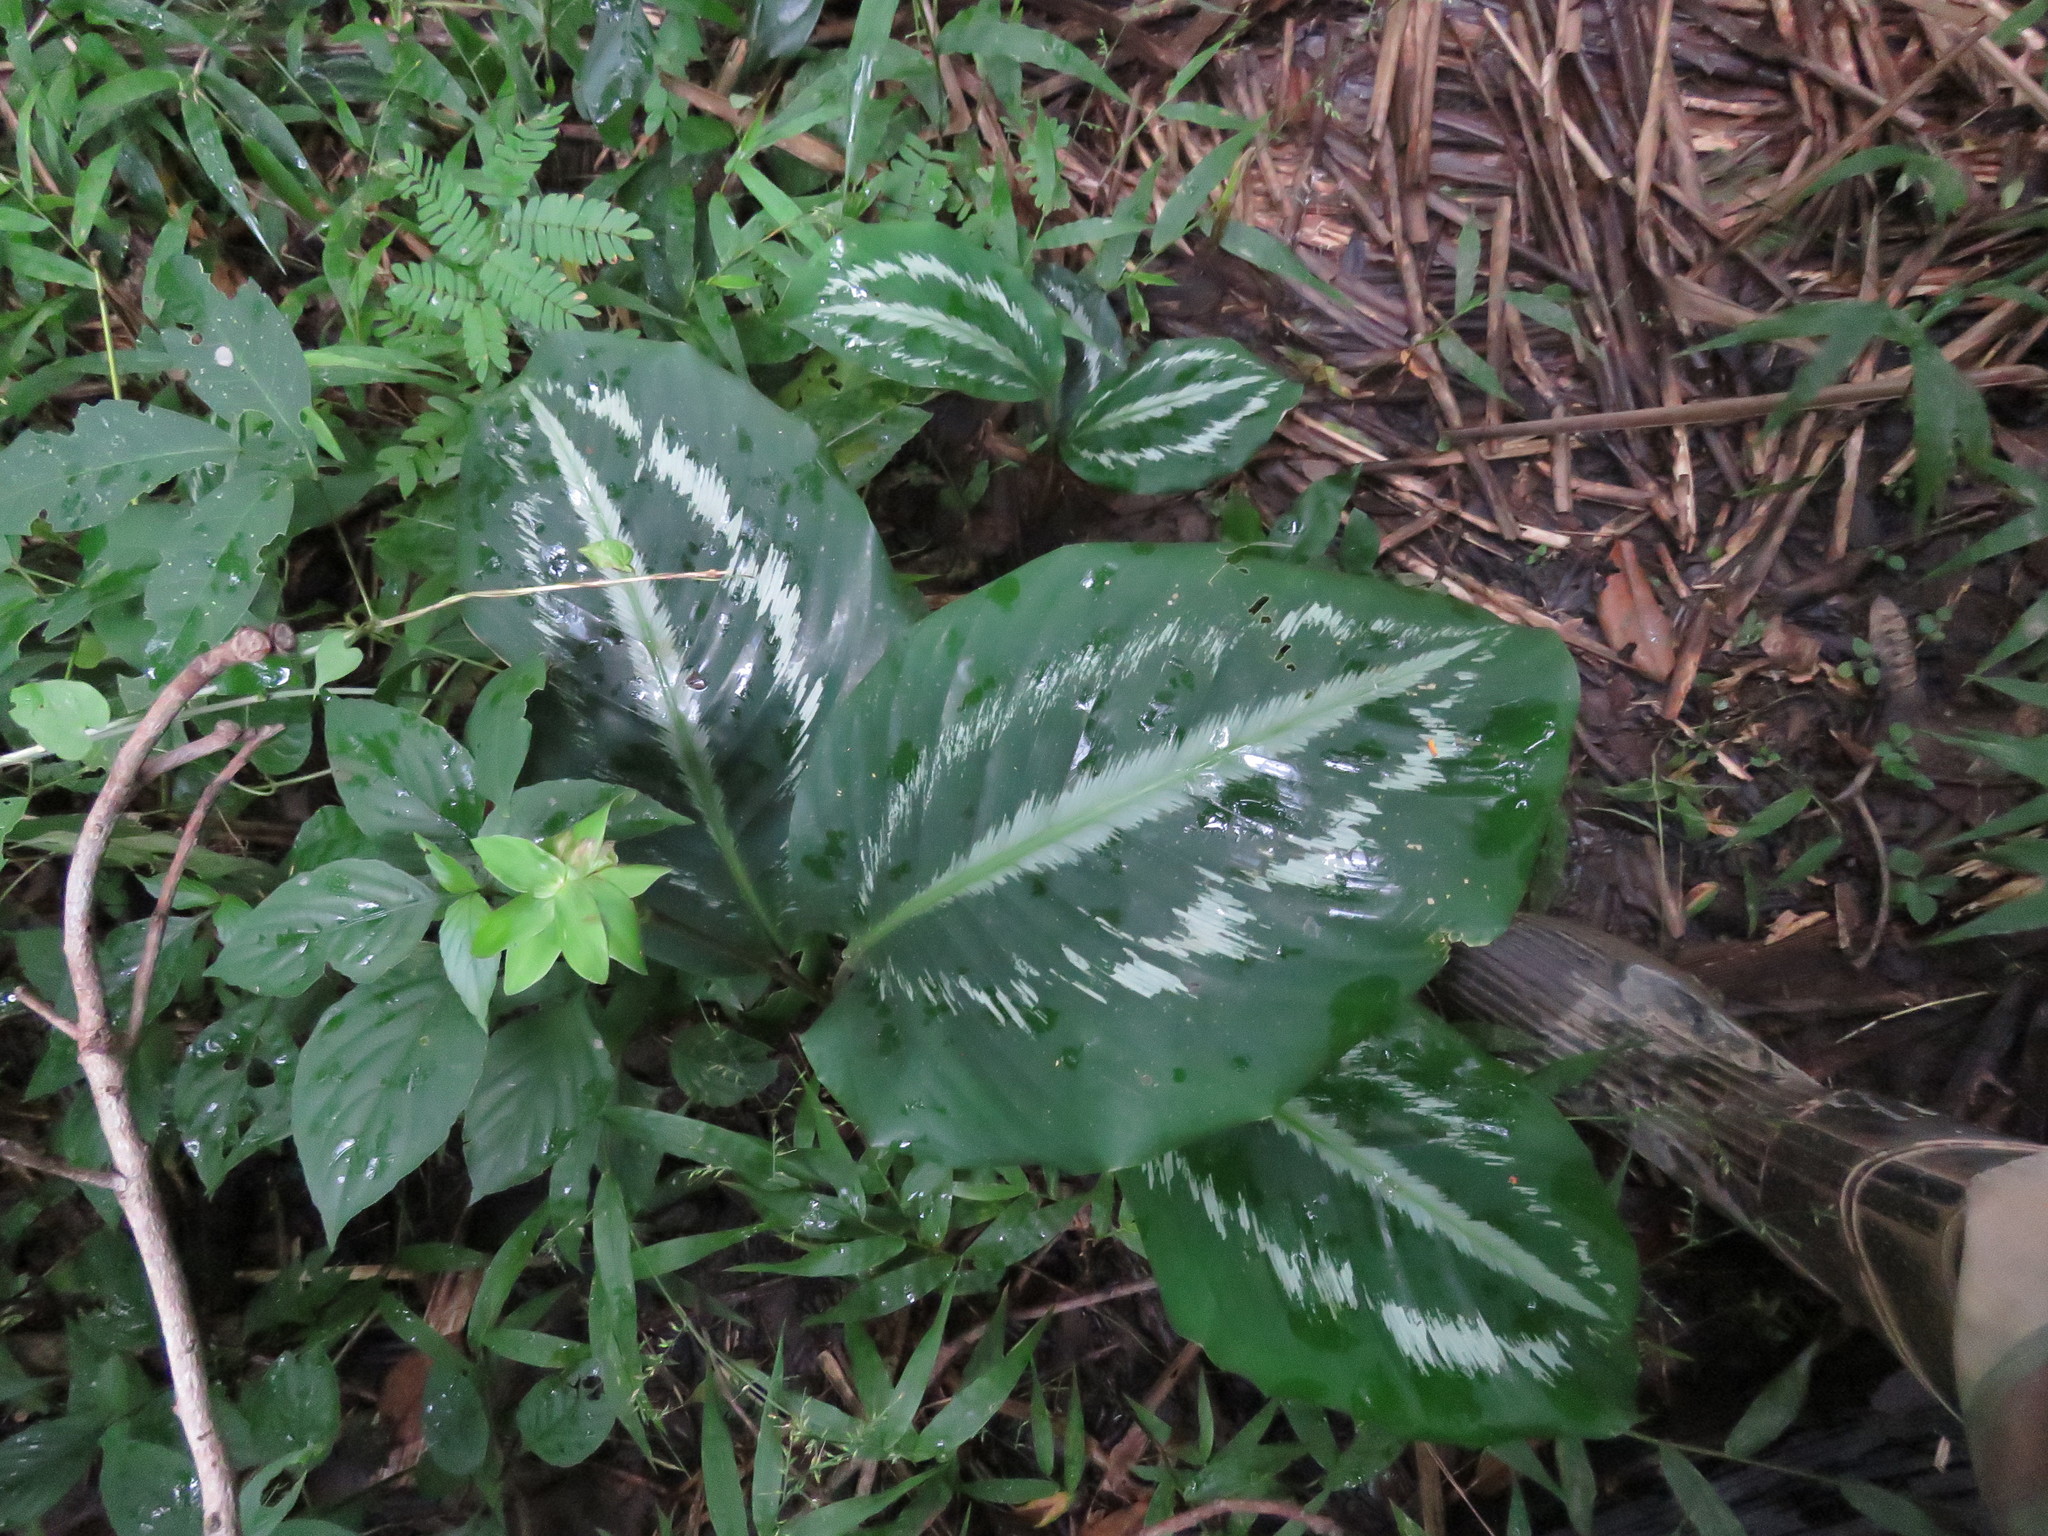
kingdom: Plantae
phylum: Tracheophyta
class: Liliopsida
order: Zingiberales
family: Marantaceae
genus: Goeppertia
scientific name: Goeppertia roseopicta
